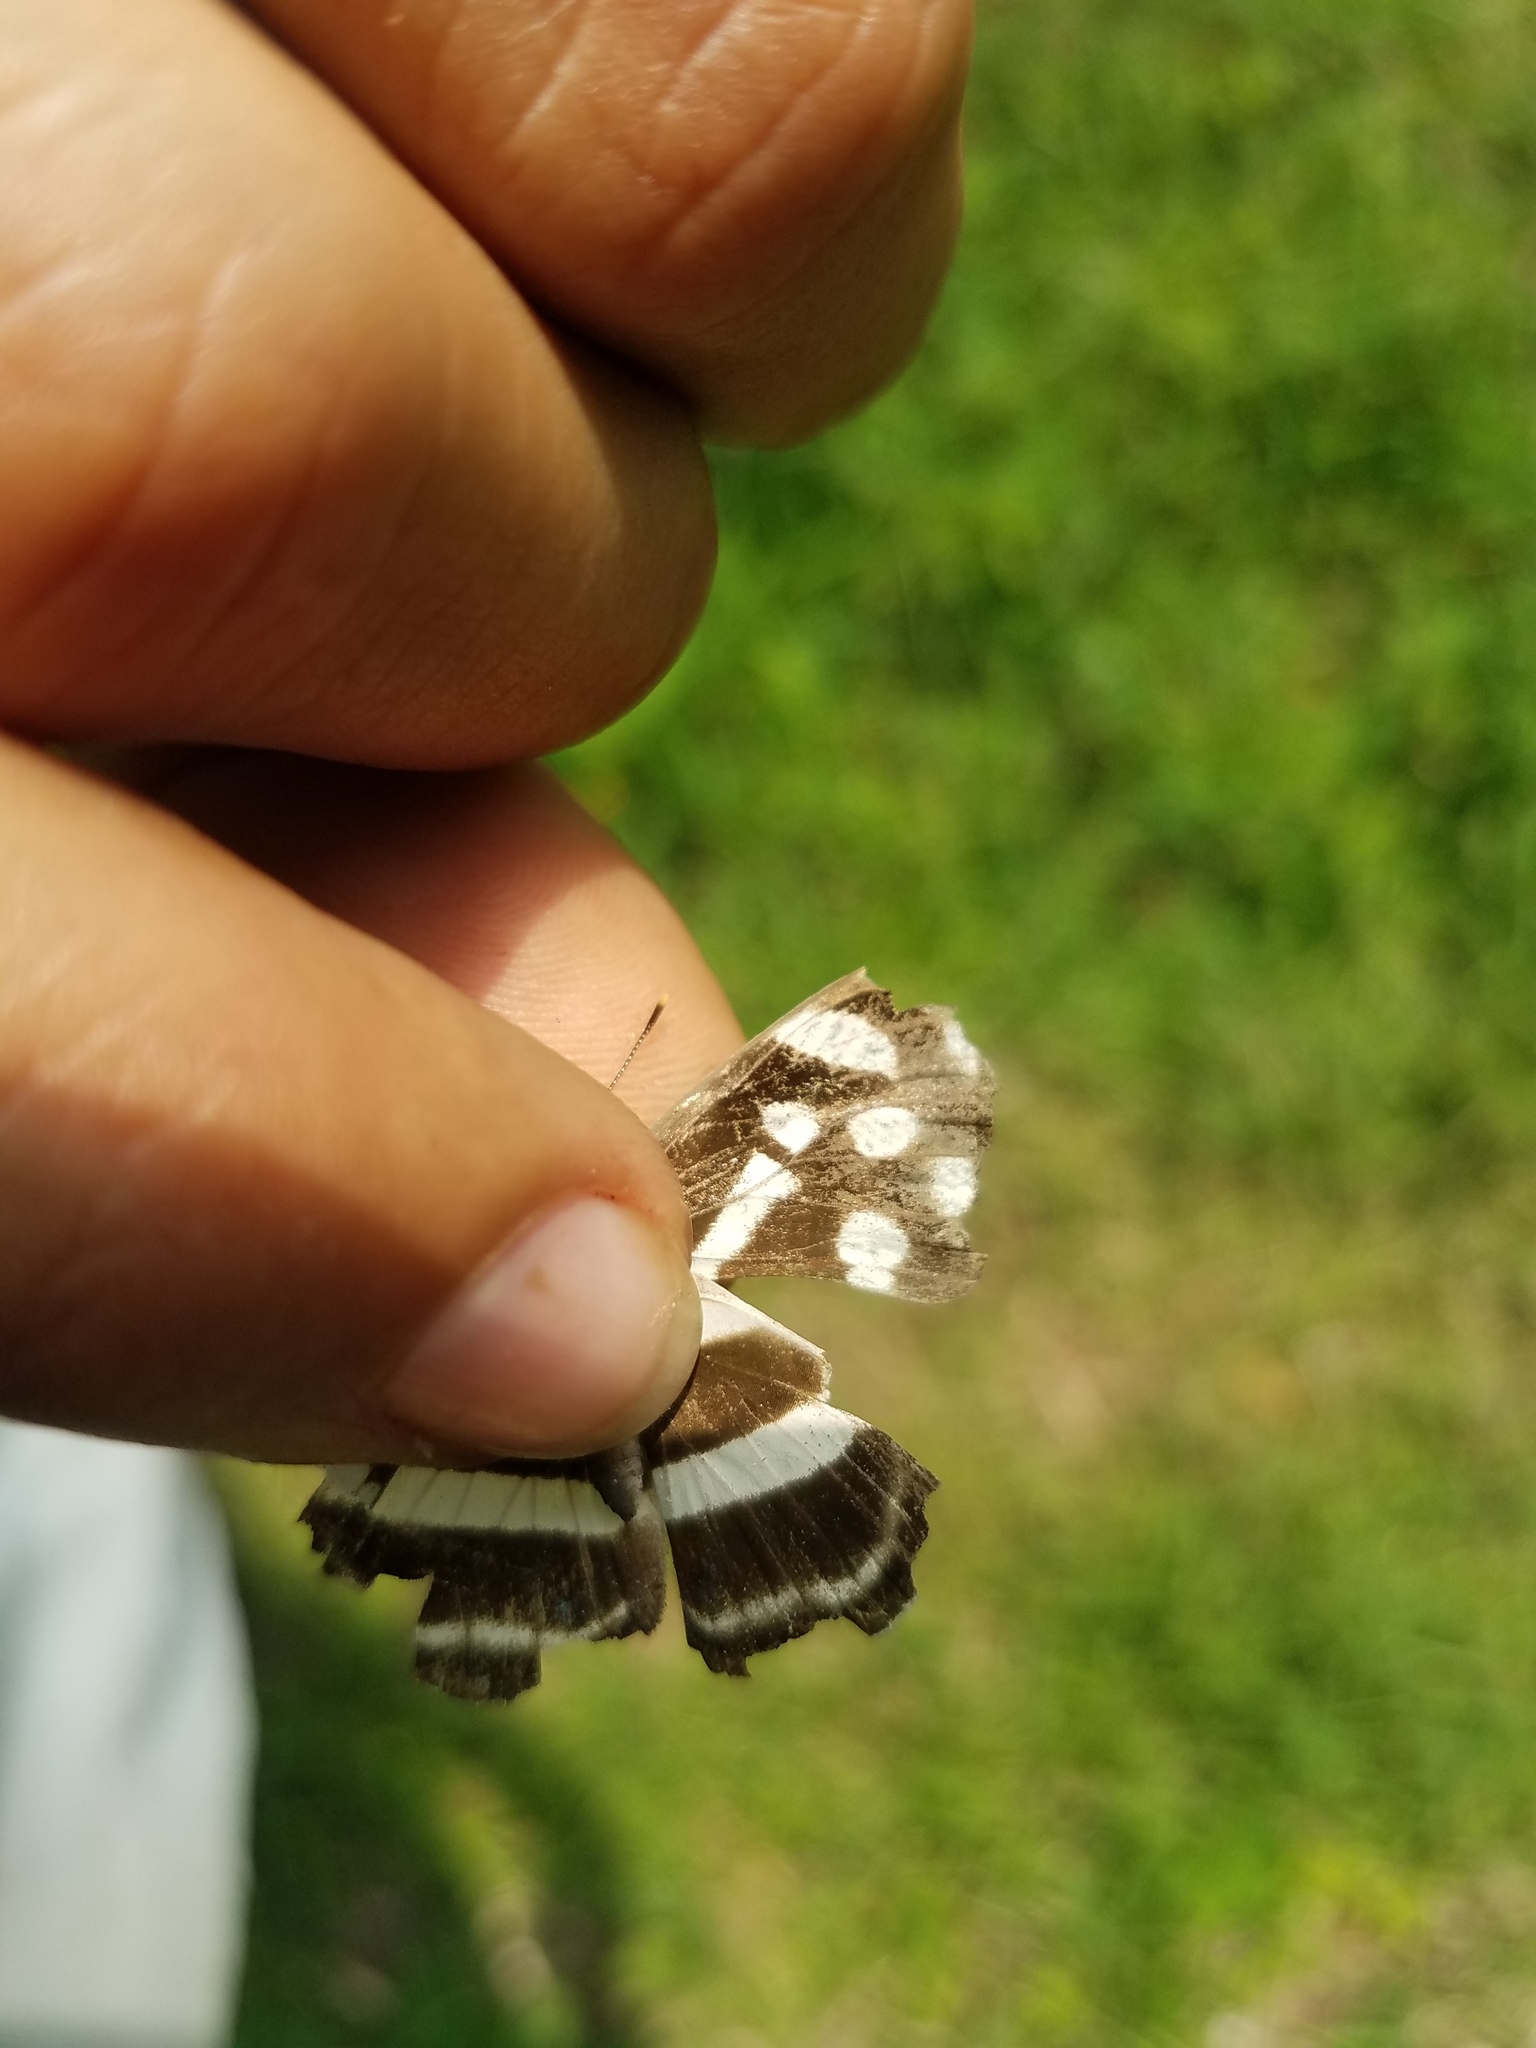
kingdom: Animalia
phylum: Arthropoda
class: Insecta
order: Lepidoptera
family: Nymphalidae
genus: Dynamine
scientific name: Dynamine mylitta
